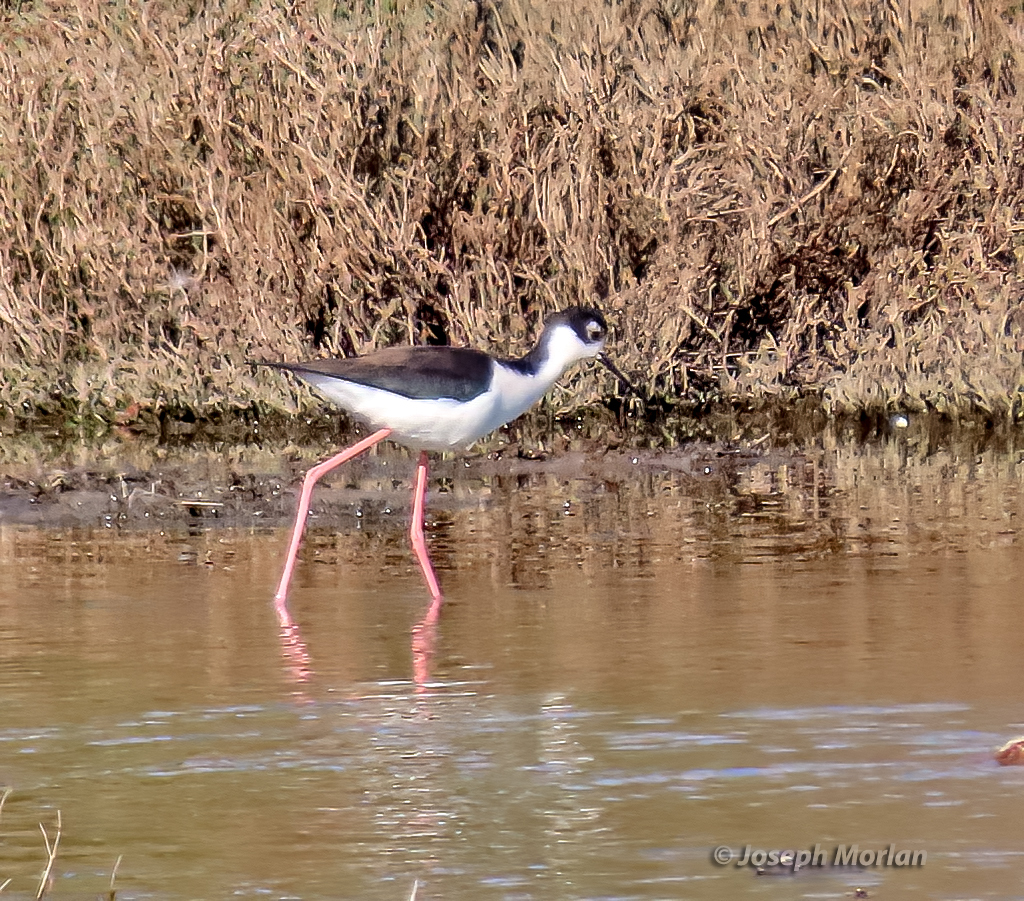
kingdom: Animalia
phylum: Chordata
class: Aves
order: Charadriiformes
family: Recurvirostridae
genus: Himantopus
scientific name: Himantopus mexicanus
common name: Black-necked stilt
